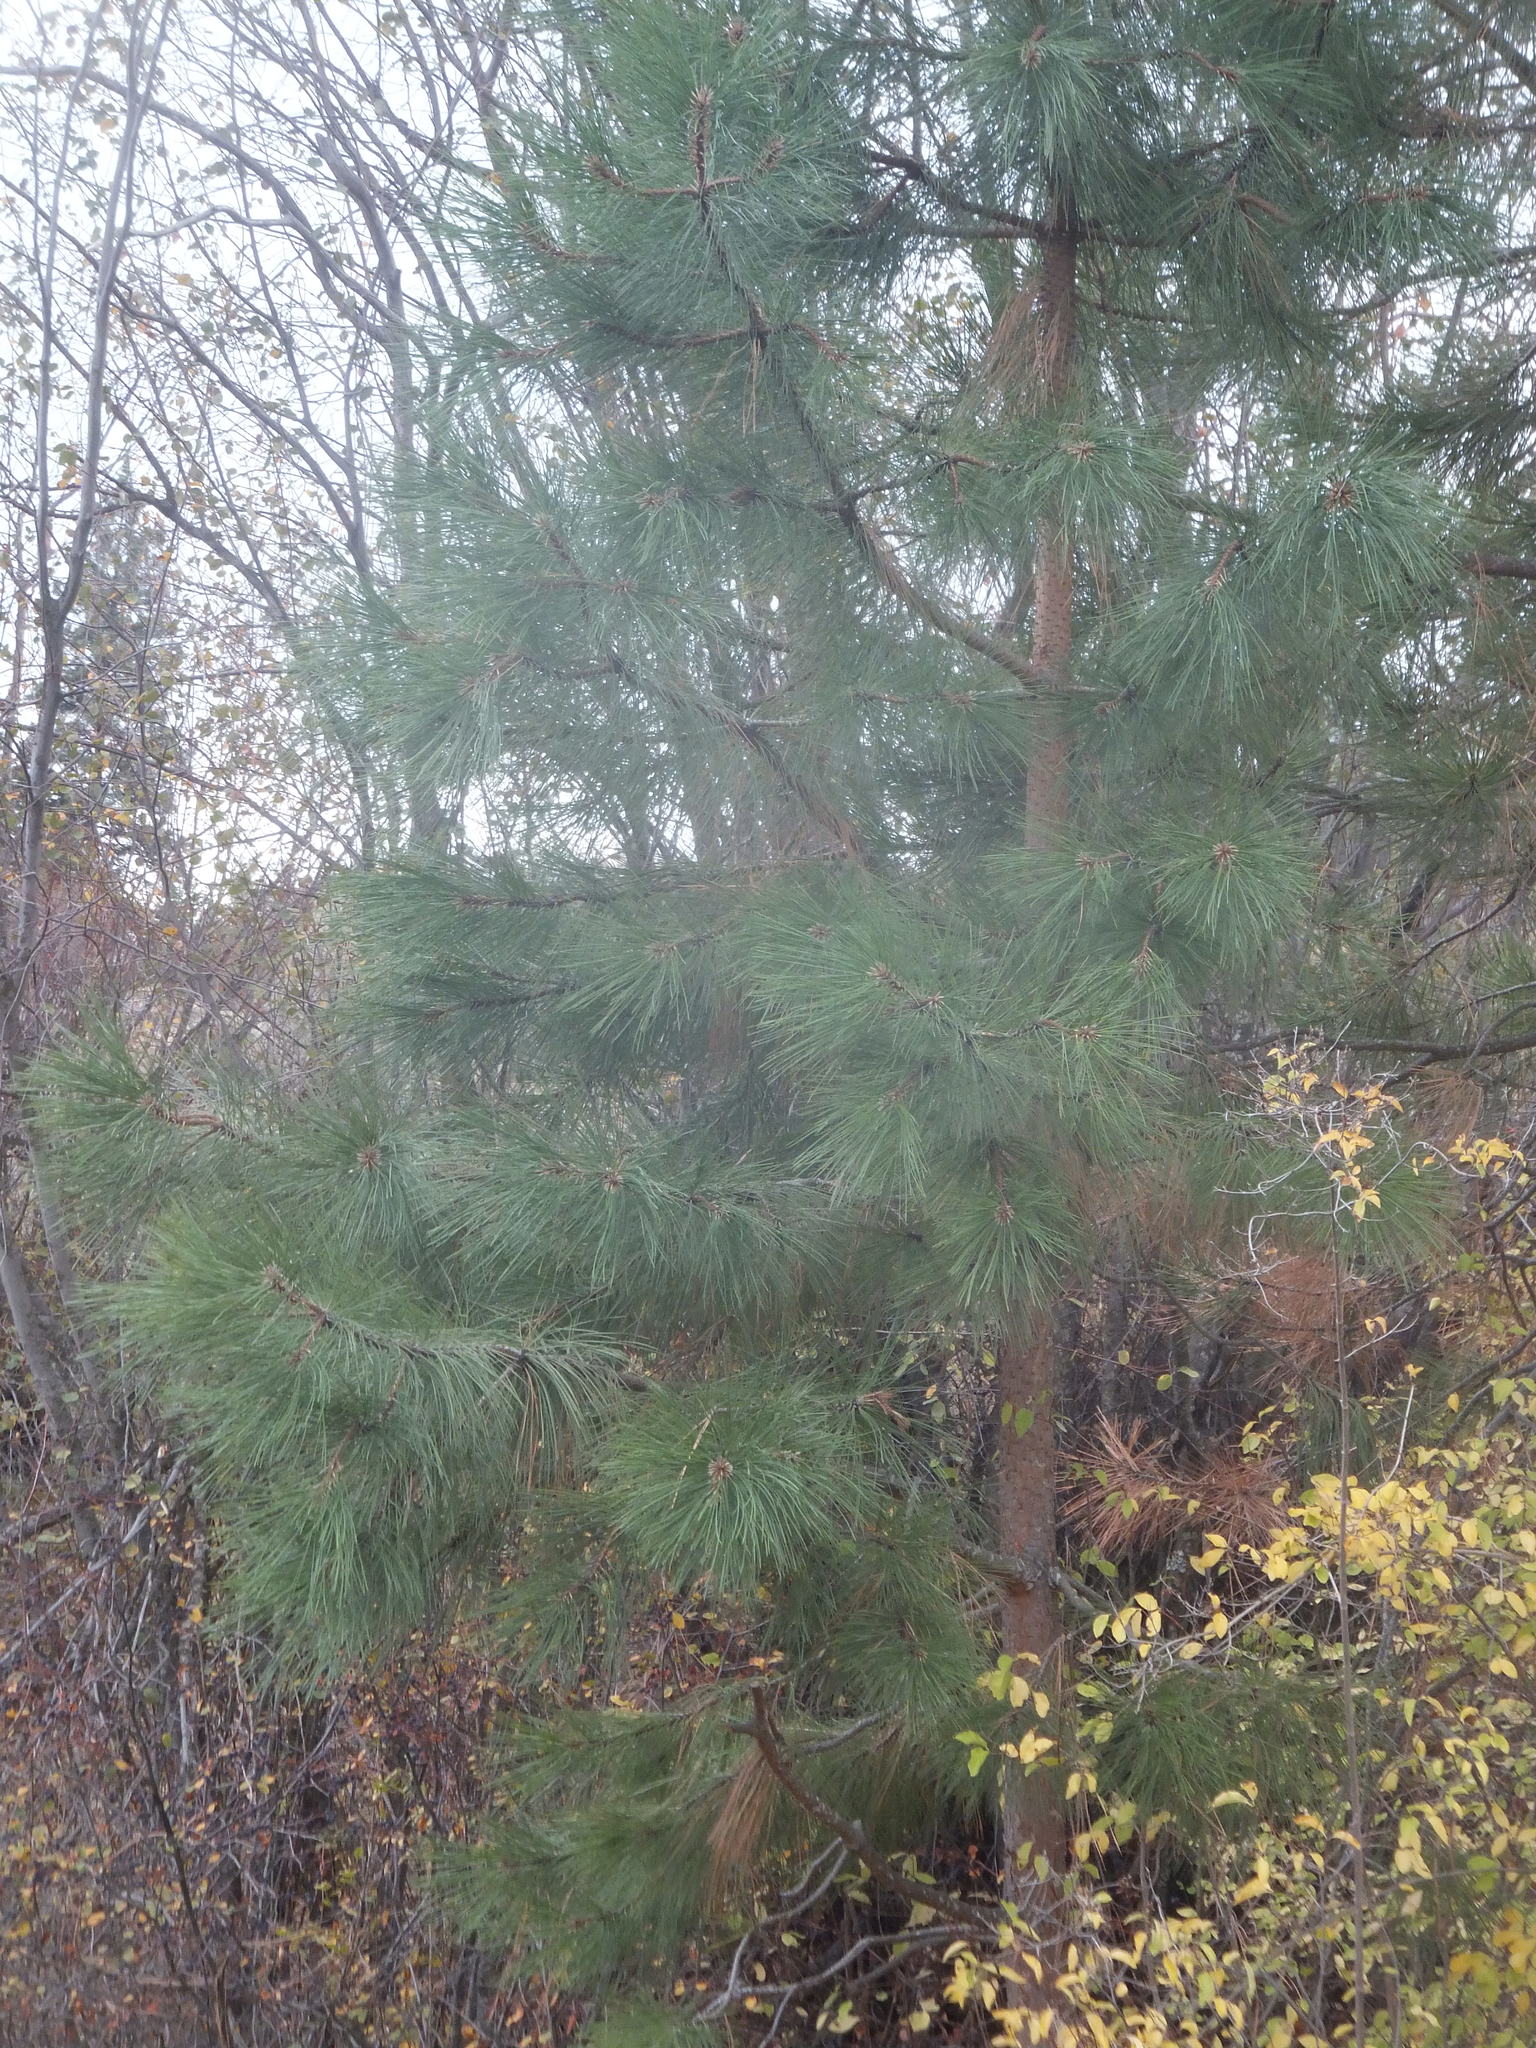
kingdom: Plantae
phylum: Tracheophyta
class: Pinopsida
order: Pinales
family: Pinaceae
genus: Pinus
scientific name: Pinus ponderosa
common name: Western yellow-pine
